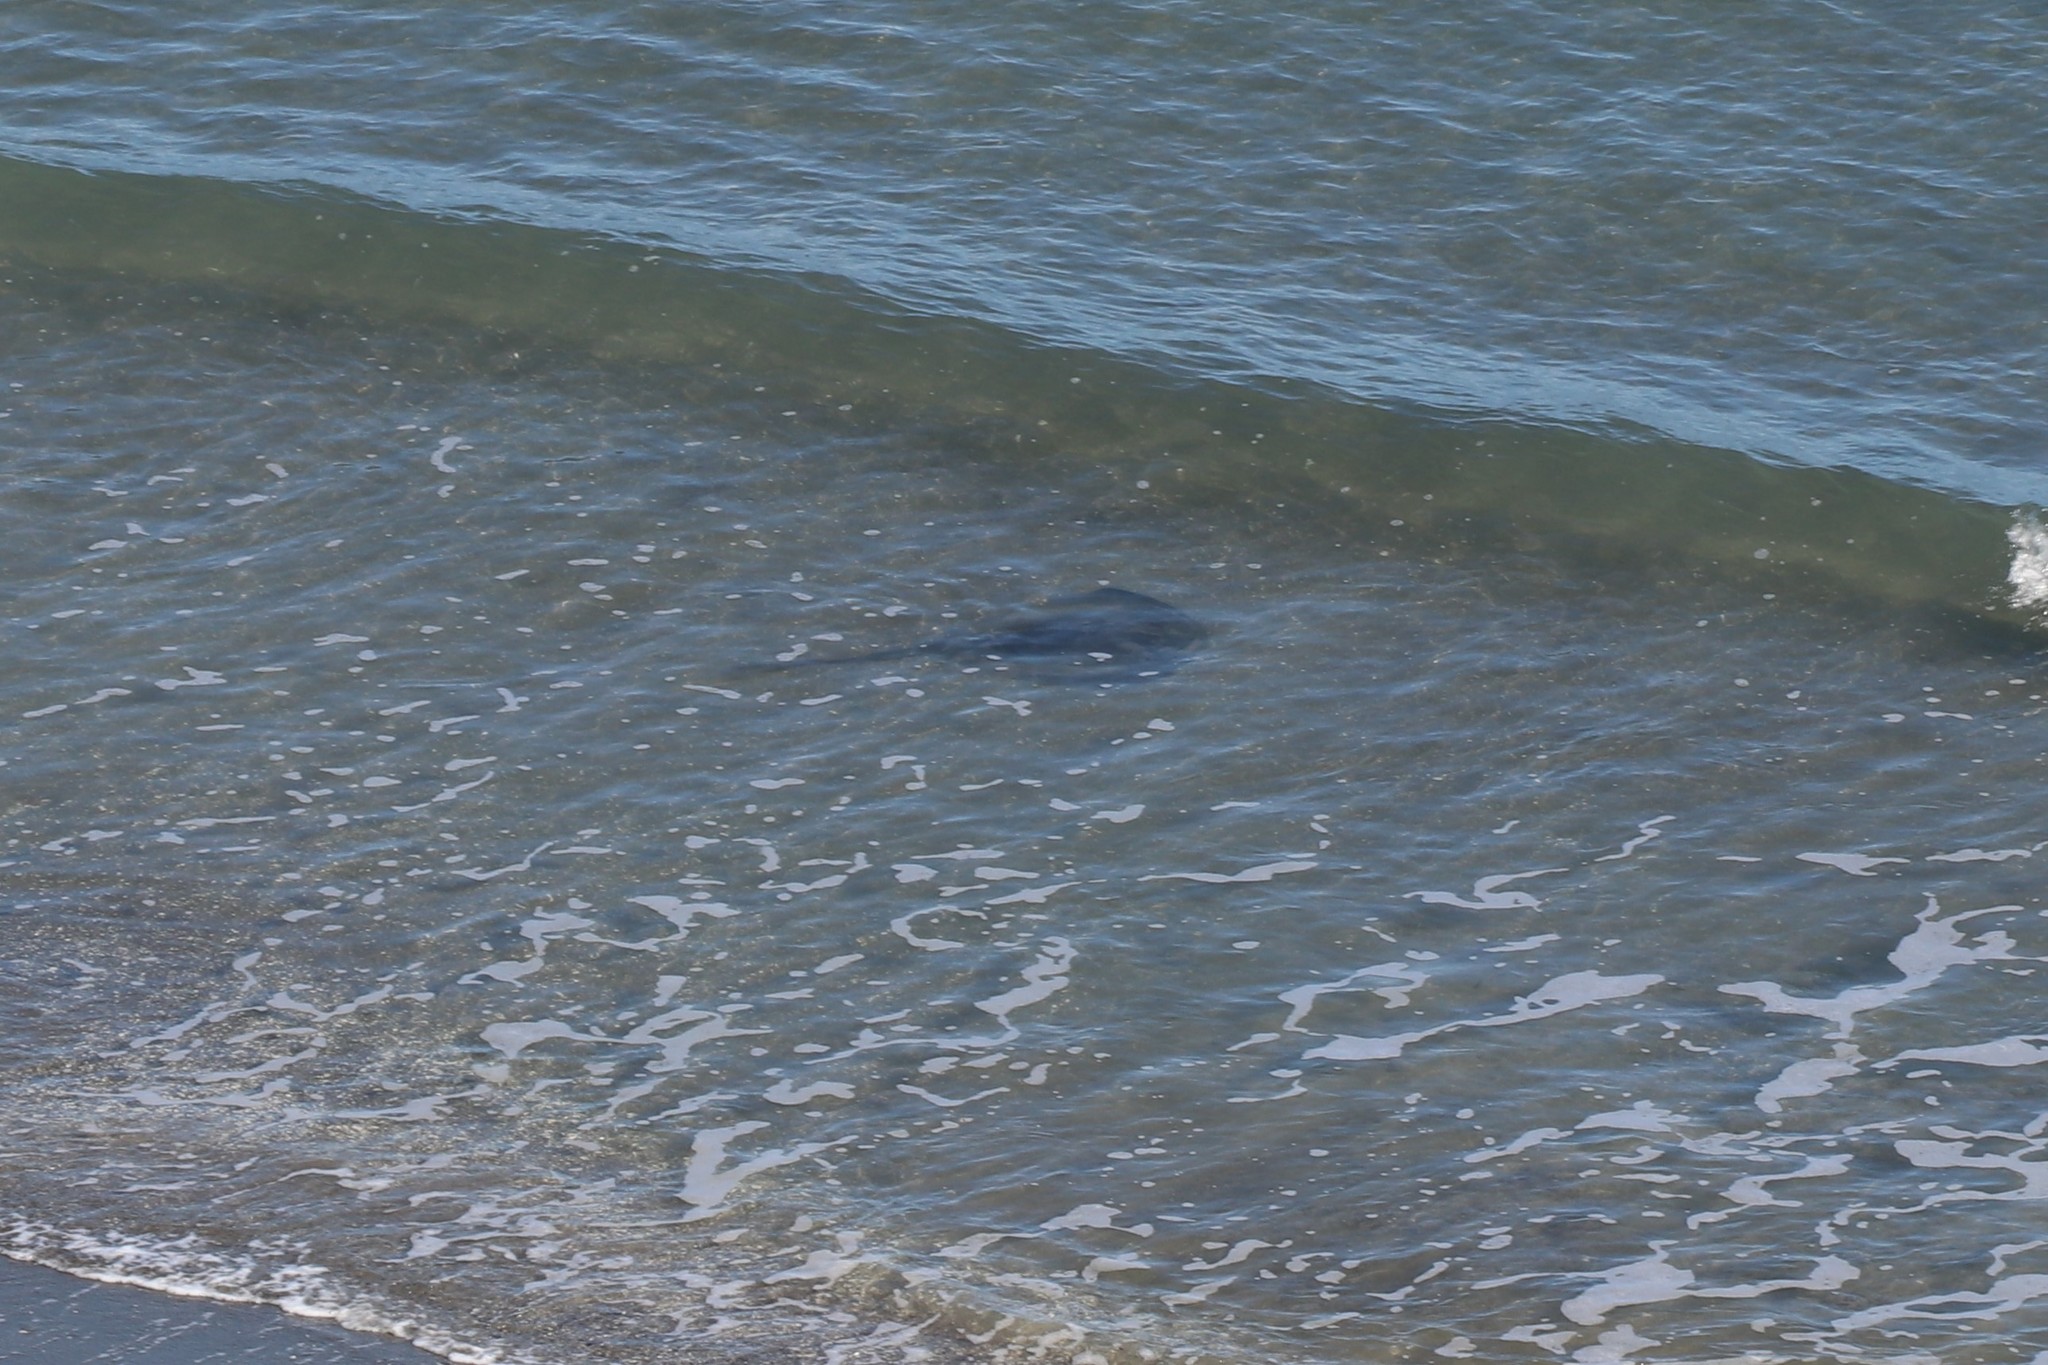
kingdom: Animalia
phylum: Chordata
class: Elasmobranchii
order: Myliobatiformes
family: Dasyatidae
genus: Bathytoshia
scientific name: Bathytoshia brevicaudata
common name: Short-tail stingray
